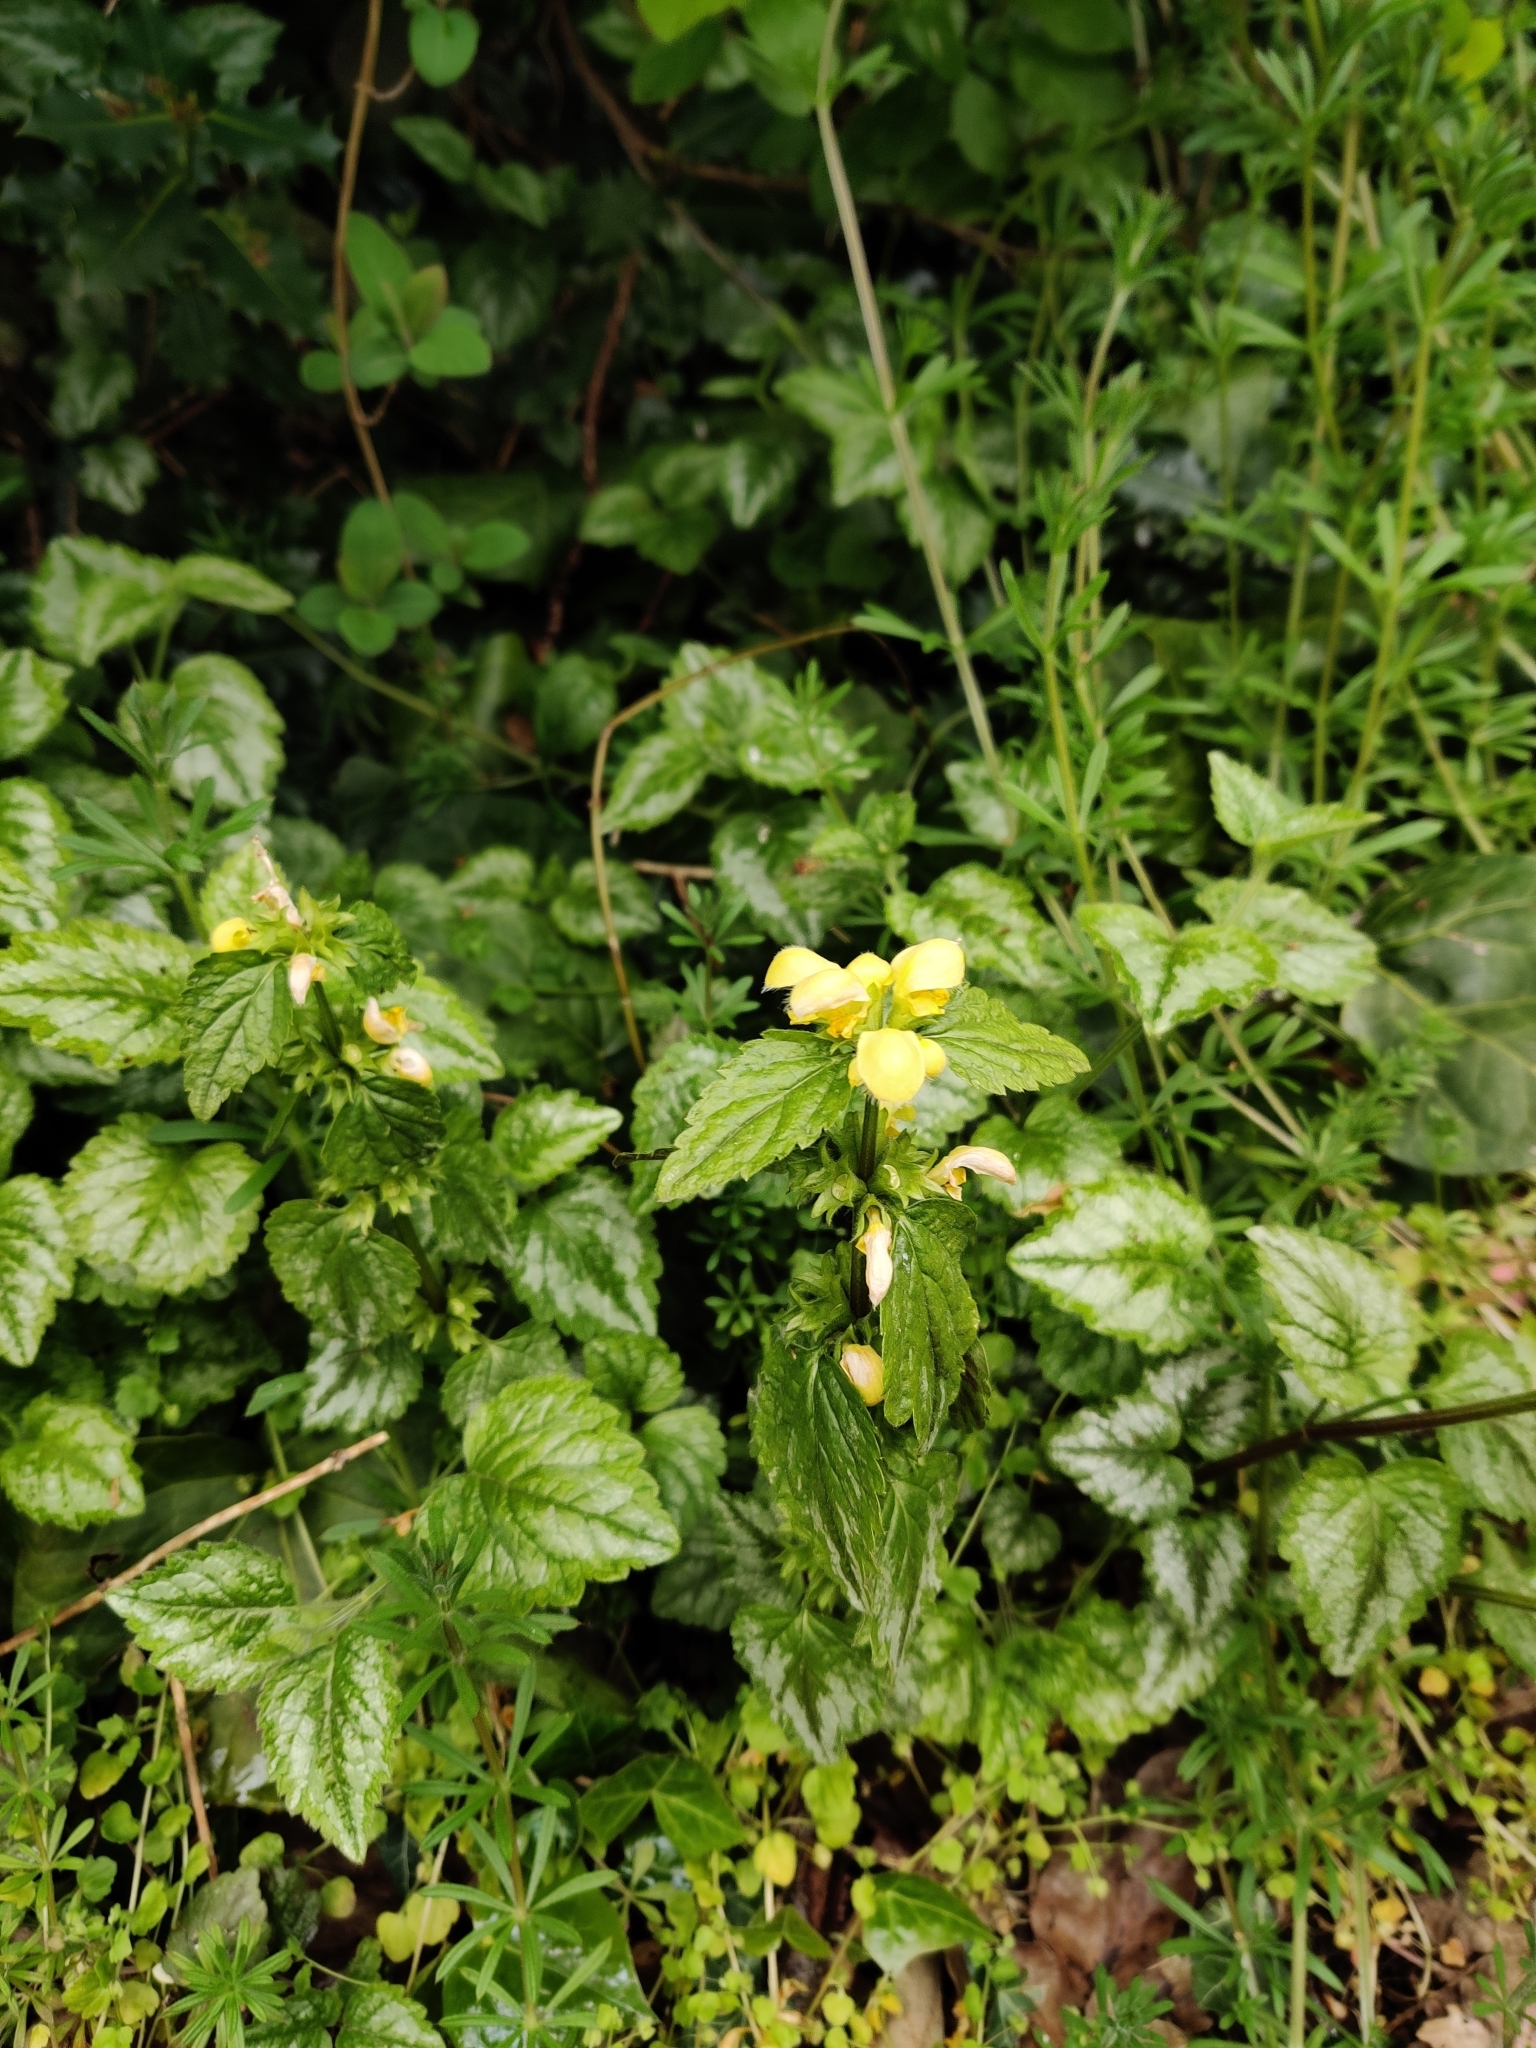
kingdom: Plantae
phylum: Tracheophyta
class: Magnoliopsida
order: Lamiales
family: Lamiaceae
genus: Lamium
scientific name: Lamium galeobdolon
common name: Yellow archangel
